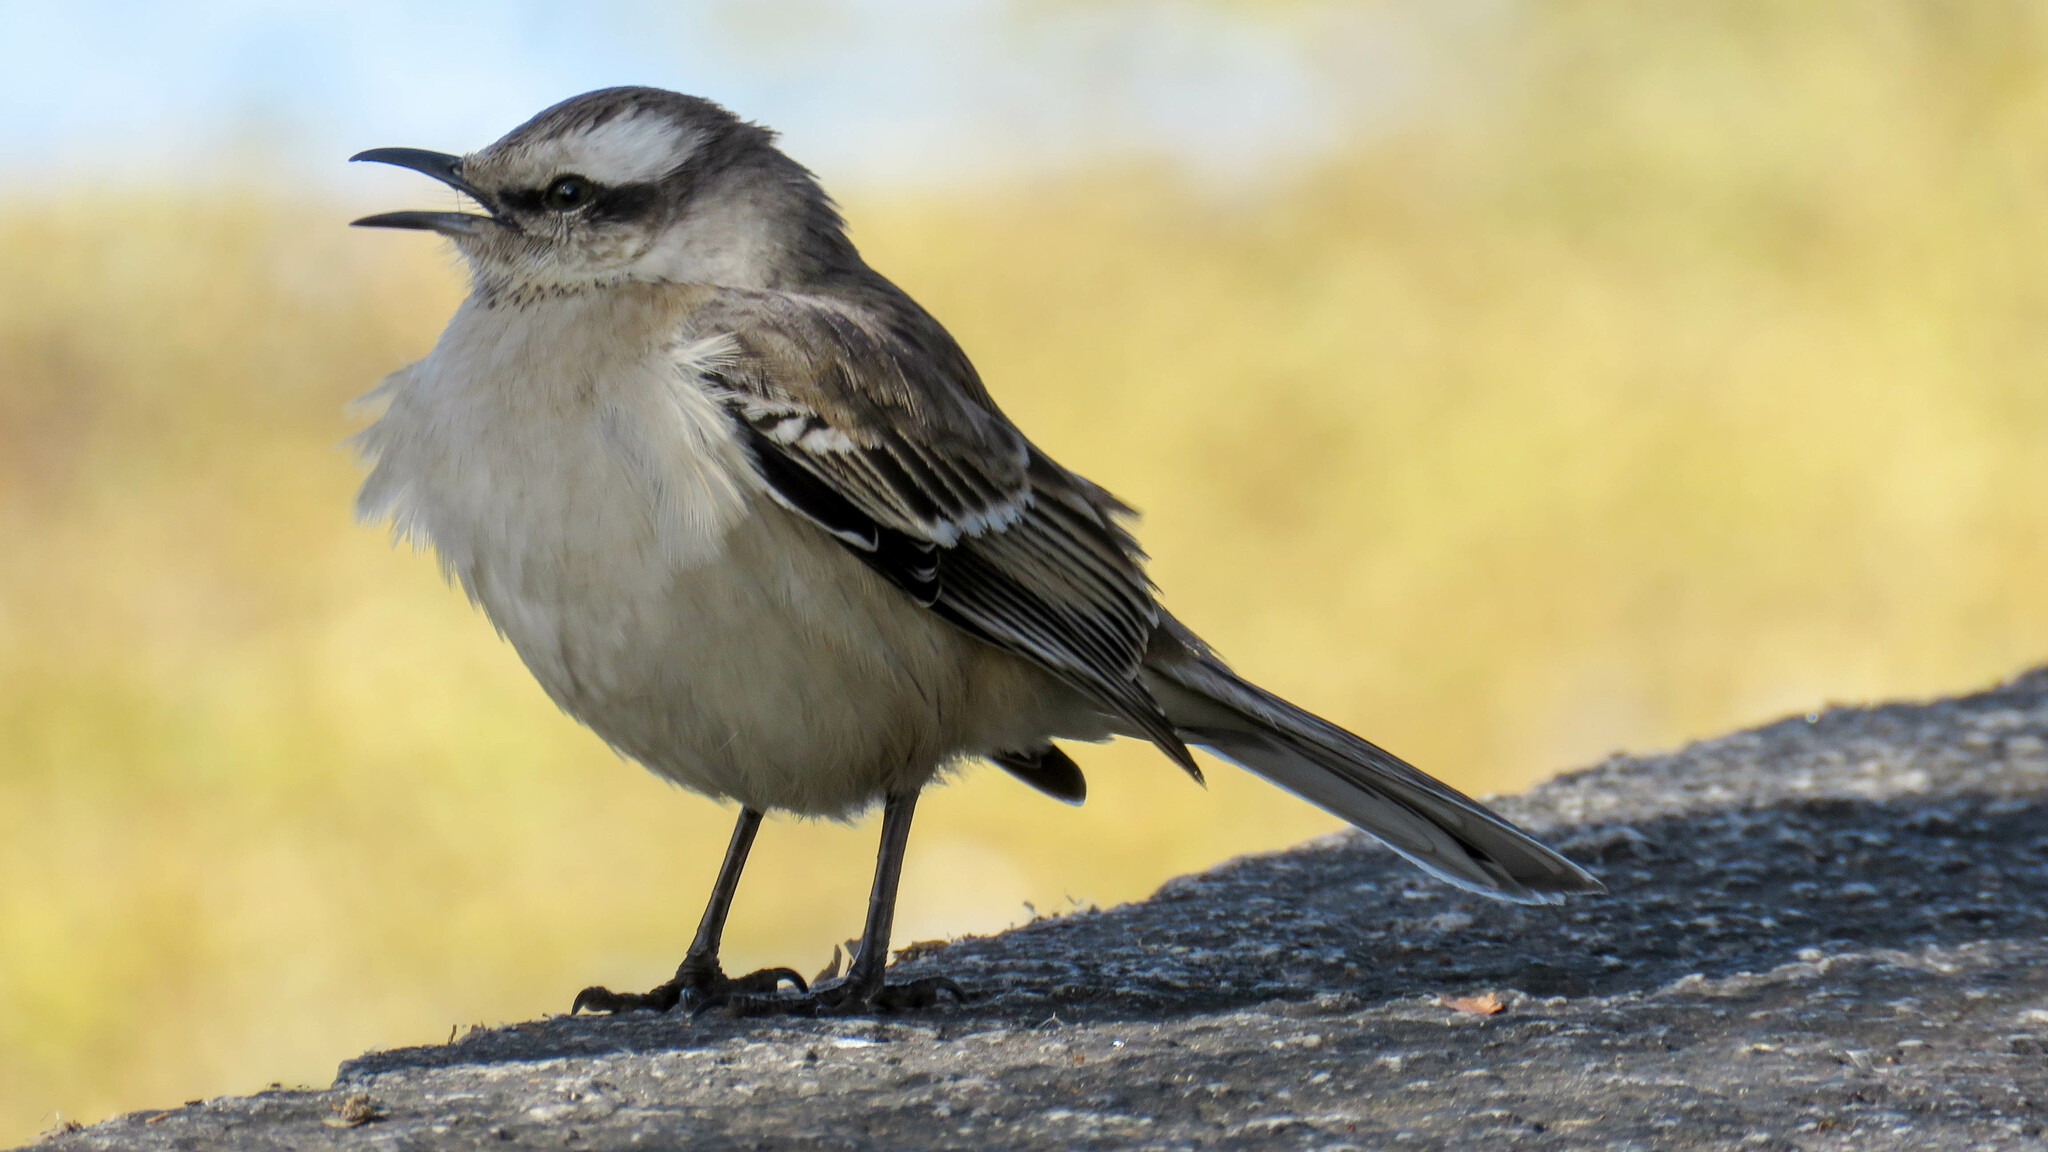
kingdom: Animalia
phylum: Chordata
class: Aves
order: Passeriformes
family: Mimidae
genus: Mimus
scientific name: Mimus saturninus
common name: Chalk-browed mockingbird
